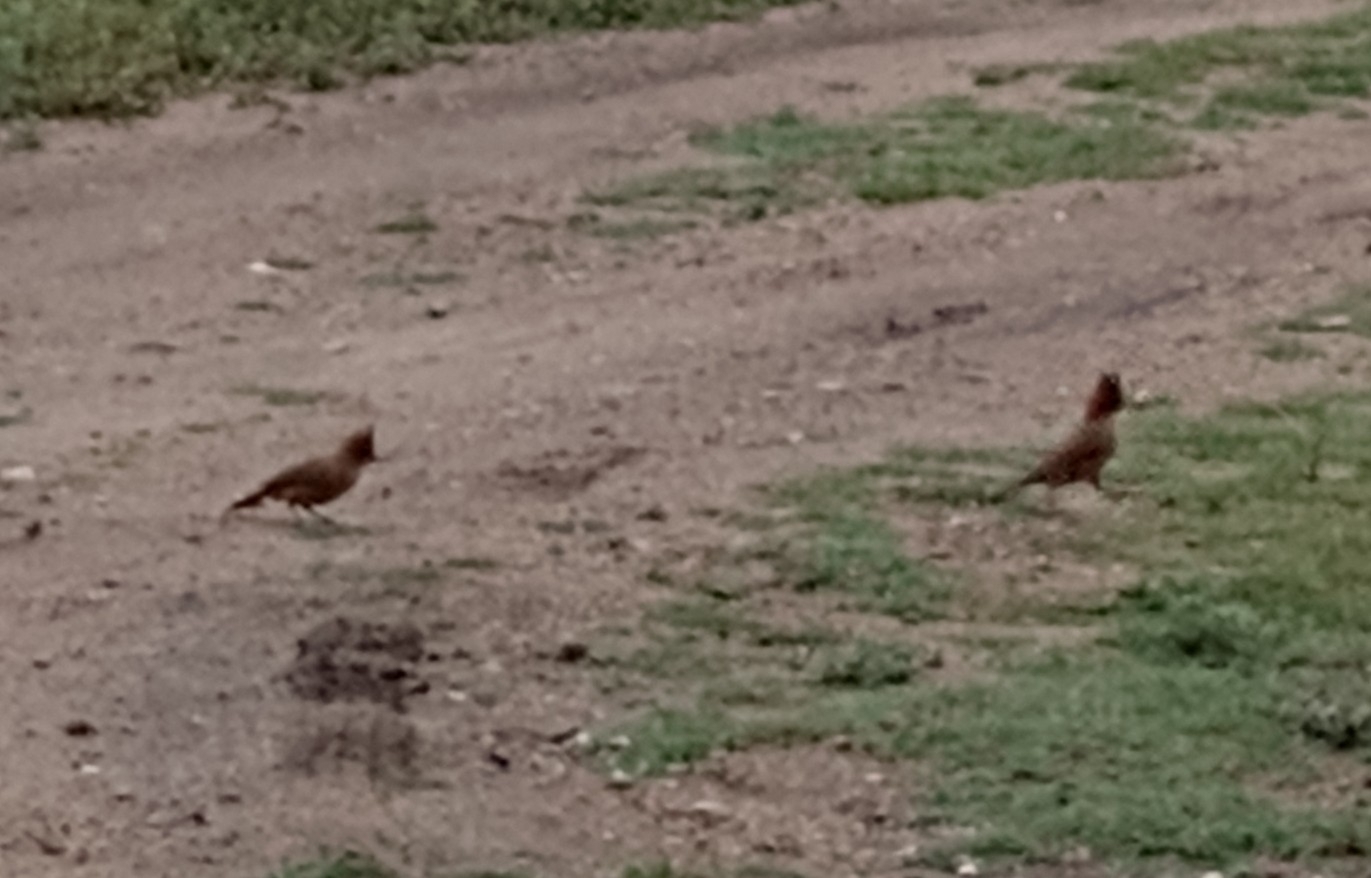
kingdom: Animalia
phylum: Chordata
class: Aves
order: Passeriformes
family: Furnariidae
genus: Pseudoseisura
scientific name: Pseudoseisura lophotes
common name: Brown cacholote
